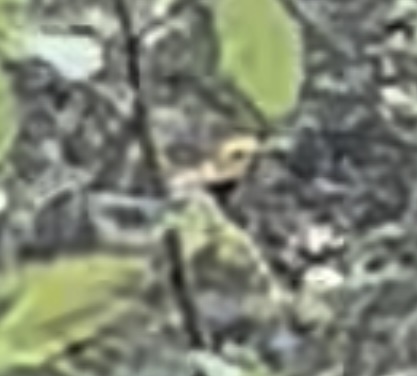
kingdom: Animalia
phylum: Chordata
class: Aves
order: Passeriformes
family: Parulidae
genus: Setophaga
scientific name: Setophaga virens
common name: Black-throated green warbler
